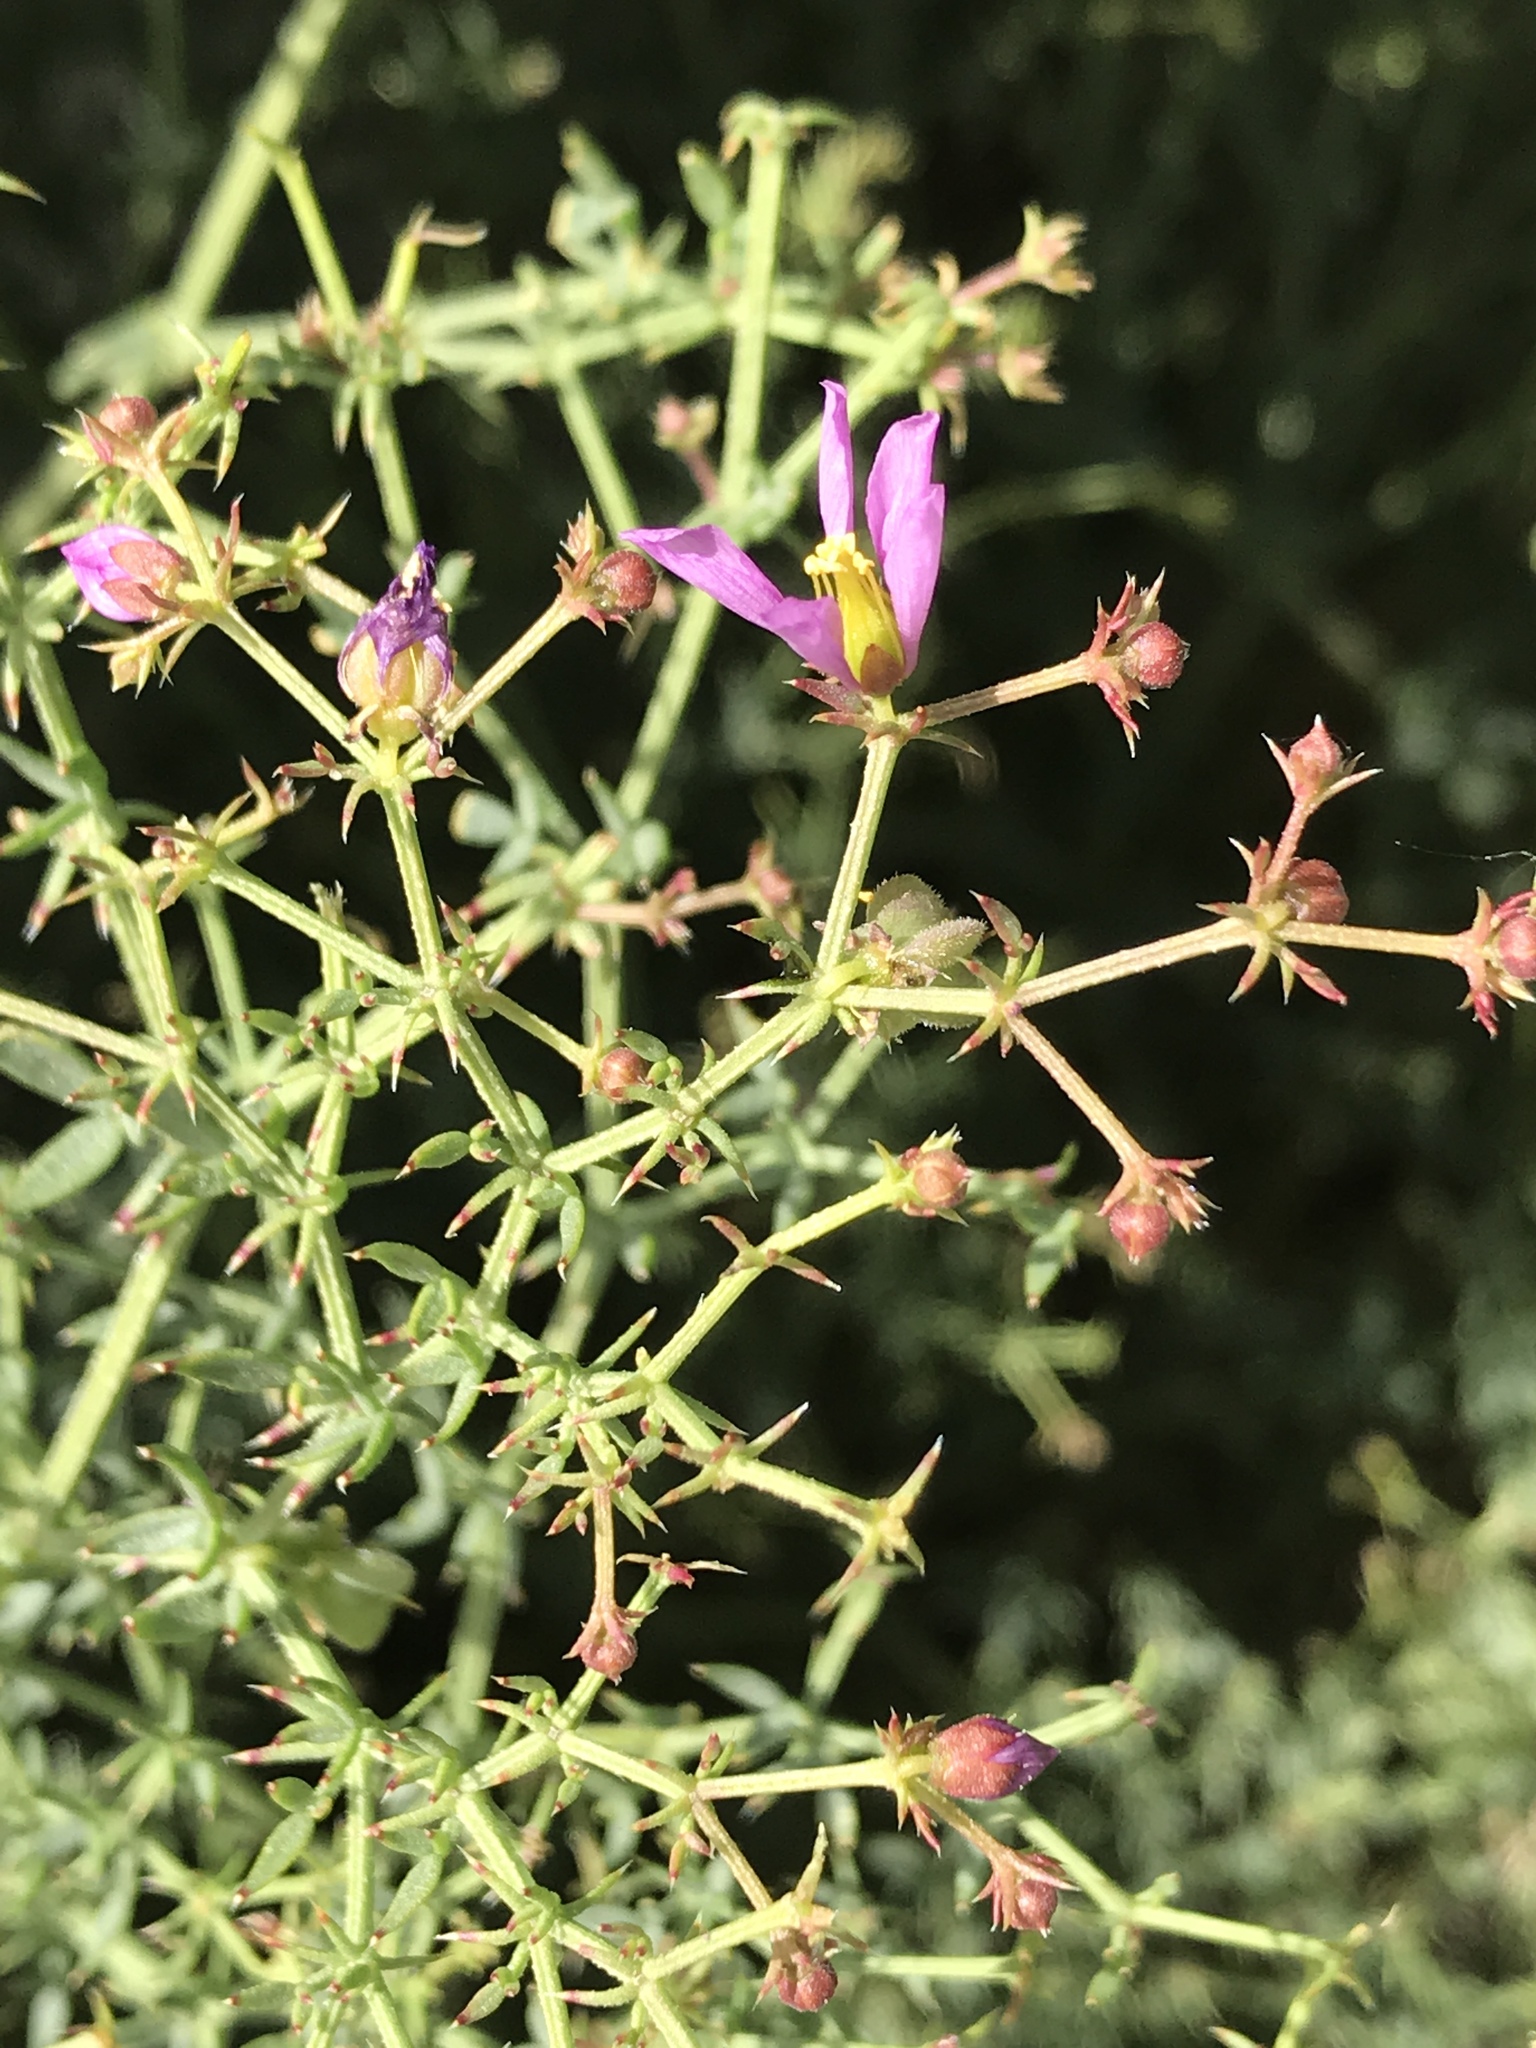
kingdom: Plantae
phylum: Tracheophyta
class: Magnoliopsida
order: Zygophyllales
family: Zygophyllaceae
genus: Fagonia
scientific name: Fagonia laevis
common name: California fagonbush
